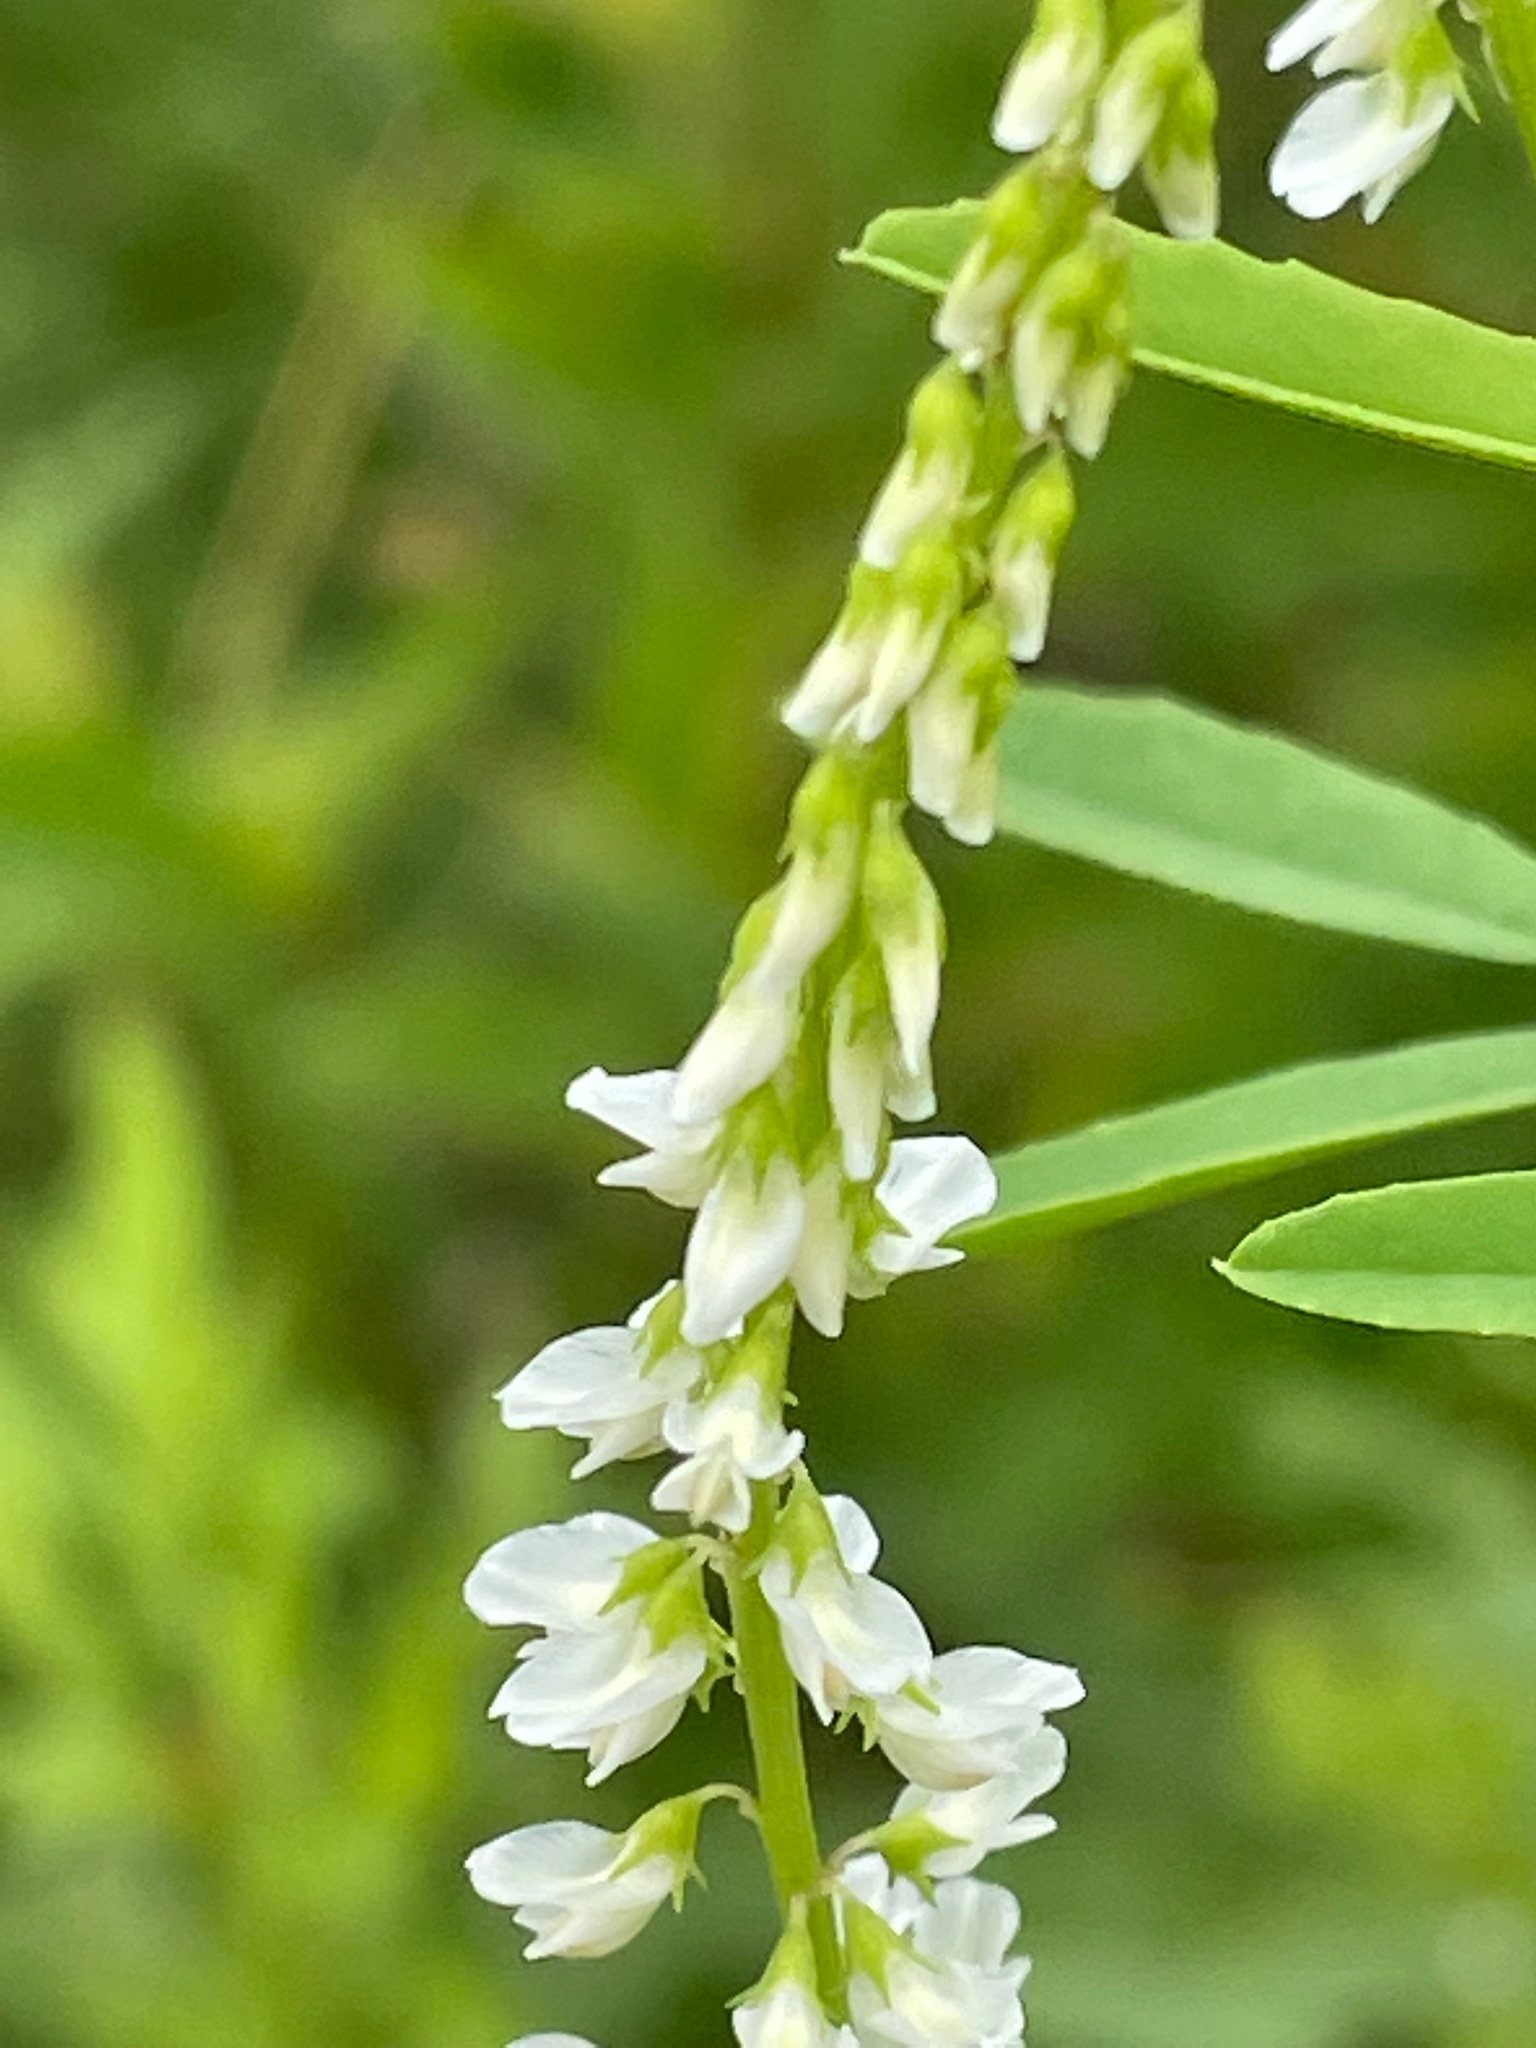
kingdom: Plantae
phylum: Tracheophyta
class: Magnoliopsida
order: Fabales
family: Fabaceae
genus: Melilotus
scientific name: Melilotus albus
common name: White melilot
